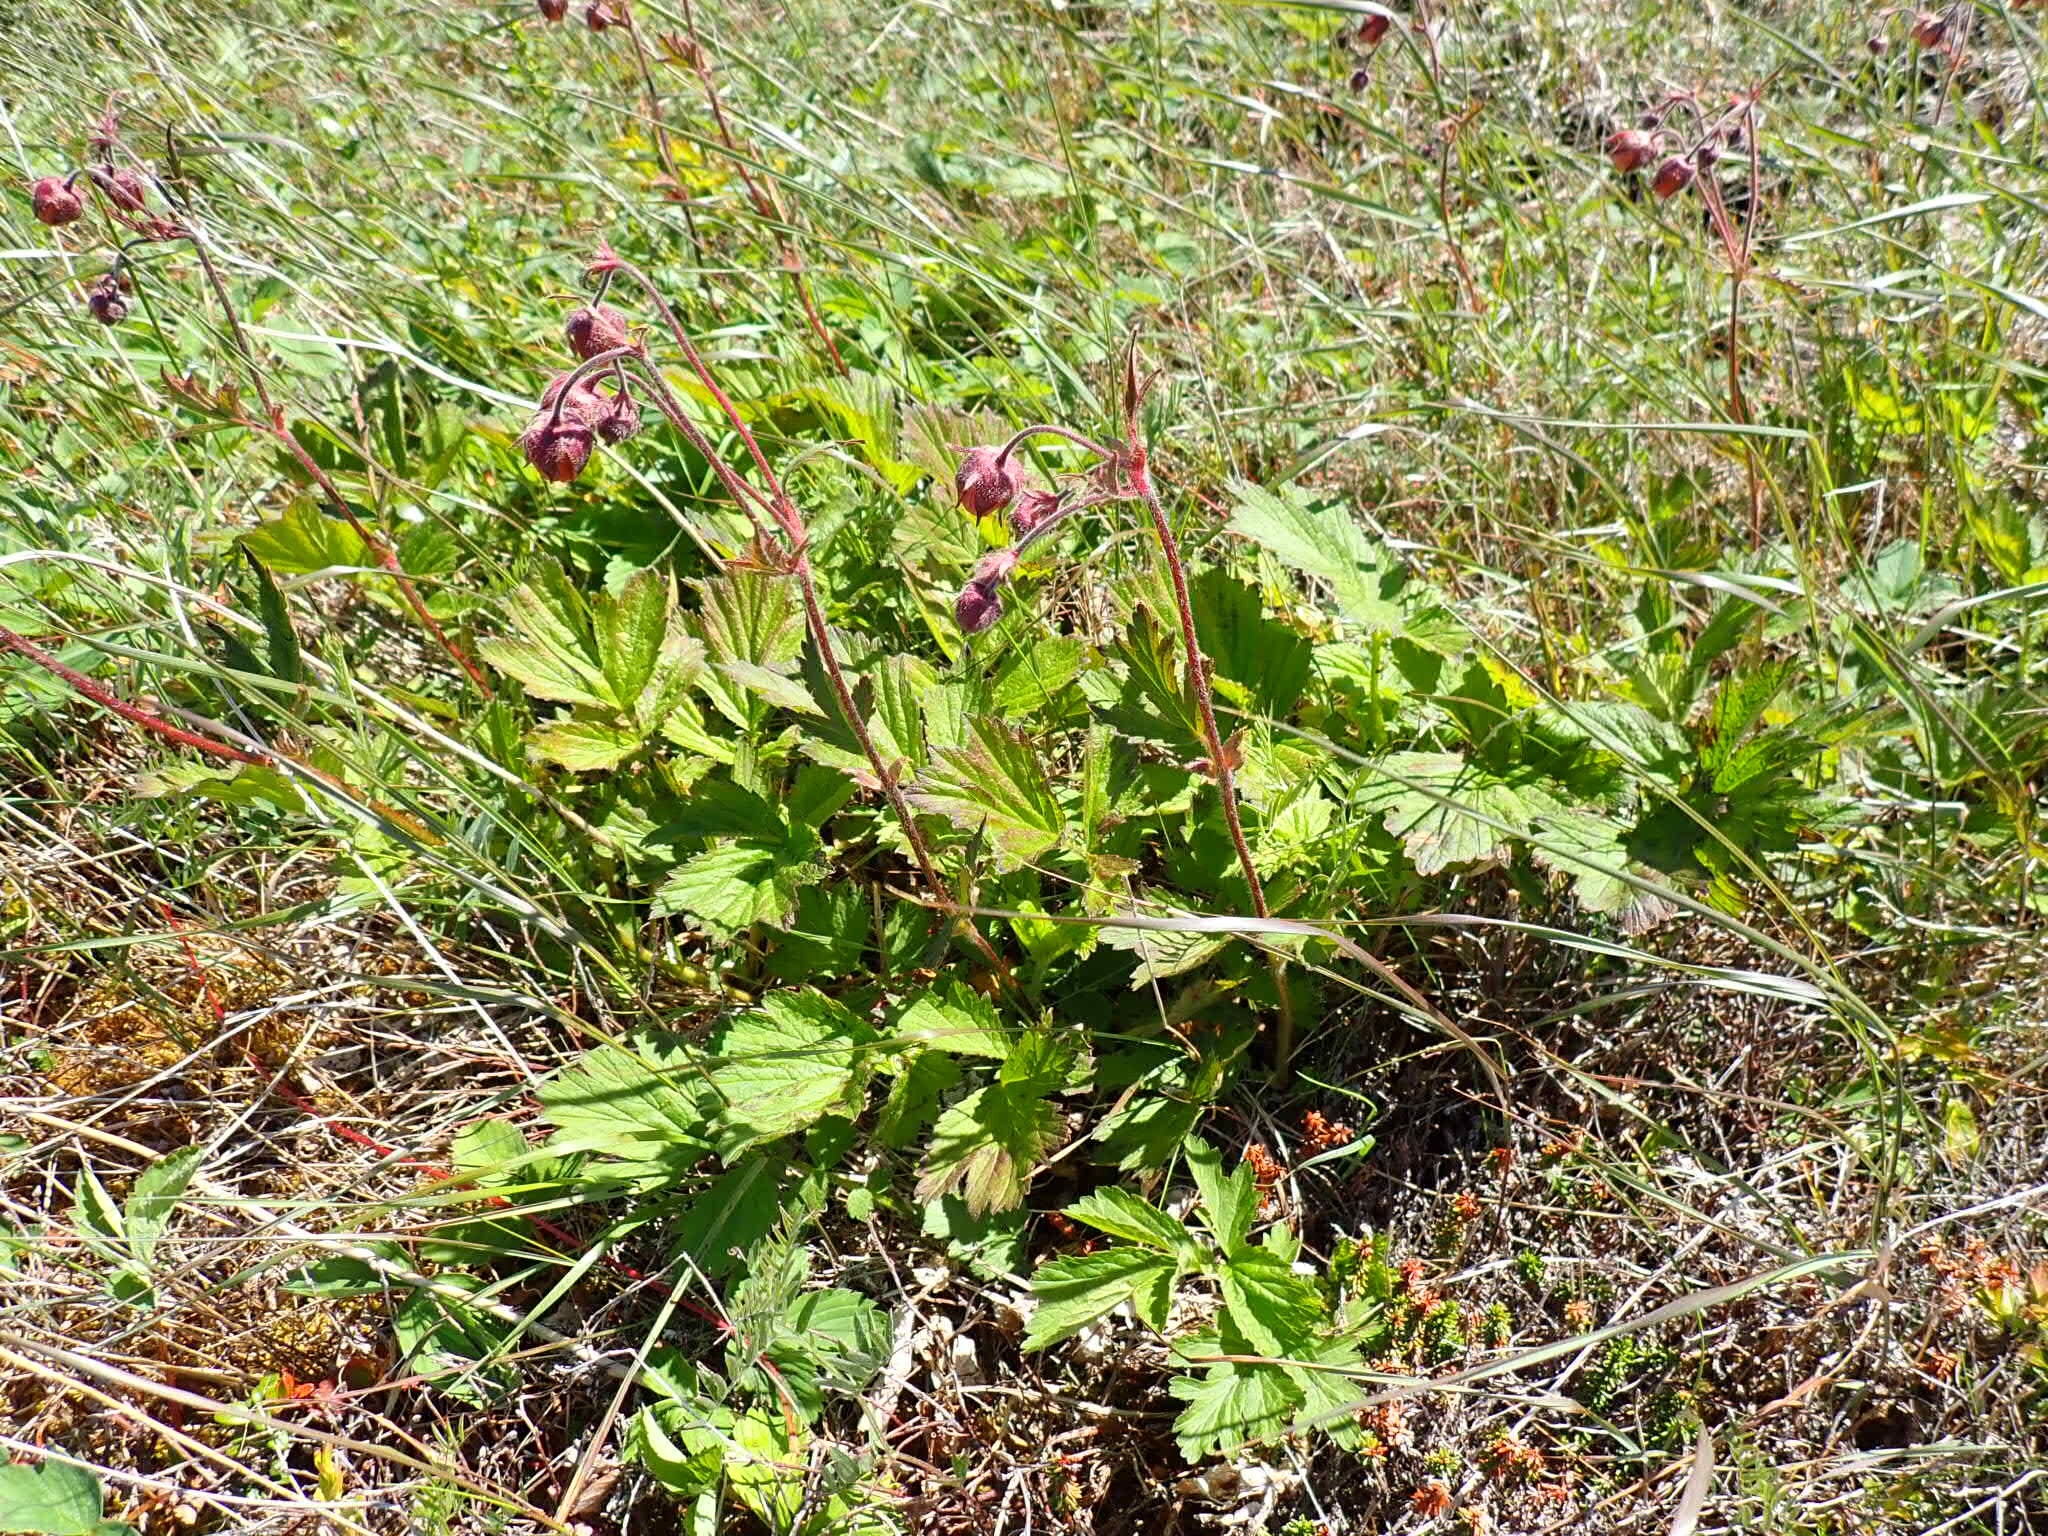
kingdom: Plantae
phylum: Tracheophyta
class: Magnoliopsida
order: Rosales
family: Rosaceae
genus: Geum
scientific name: Geum rivale
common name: Water avens
